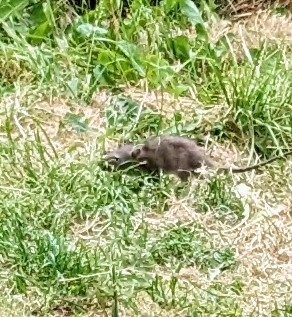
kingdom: Animalia
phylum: Chordata
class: Mammalia
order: Rodentia
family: Muridae
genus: Rattus
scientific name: Rattus norvegicus
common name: Brown rat
